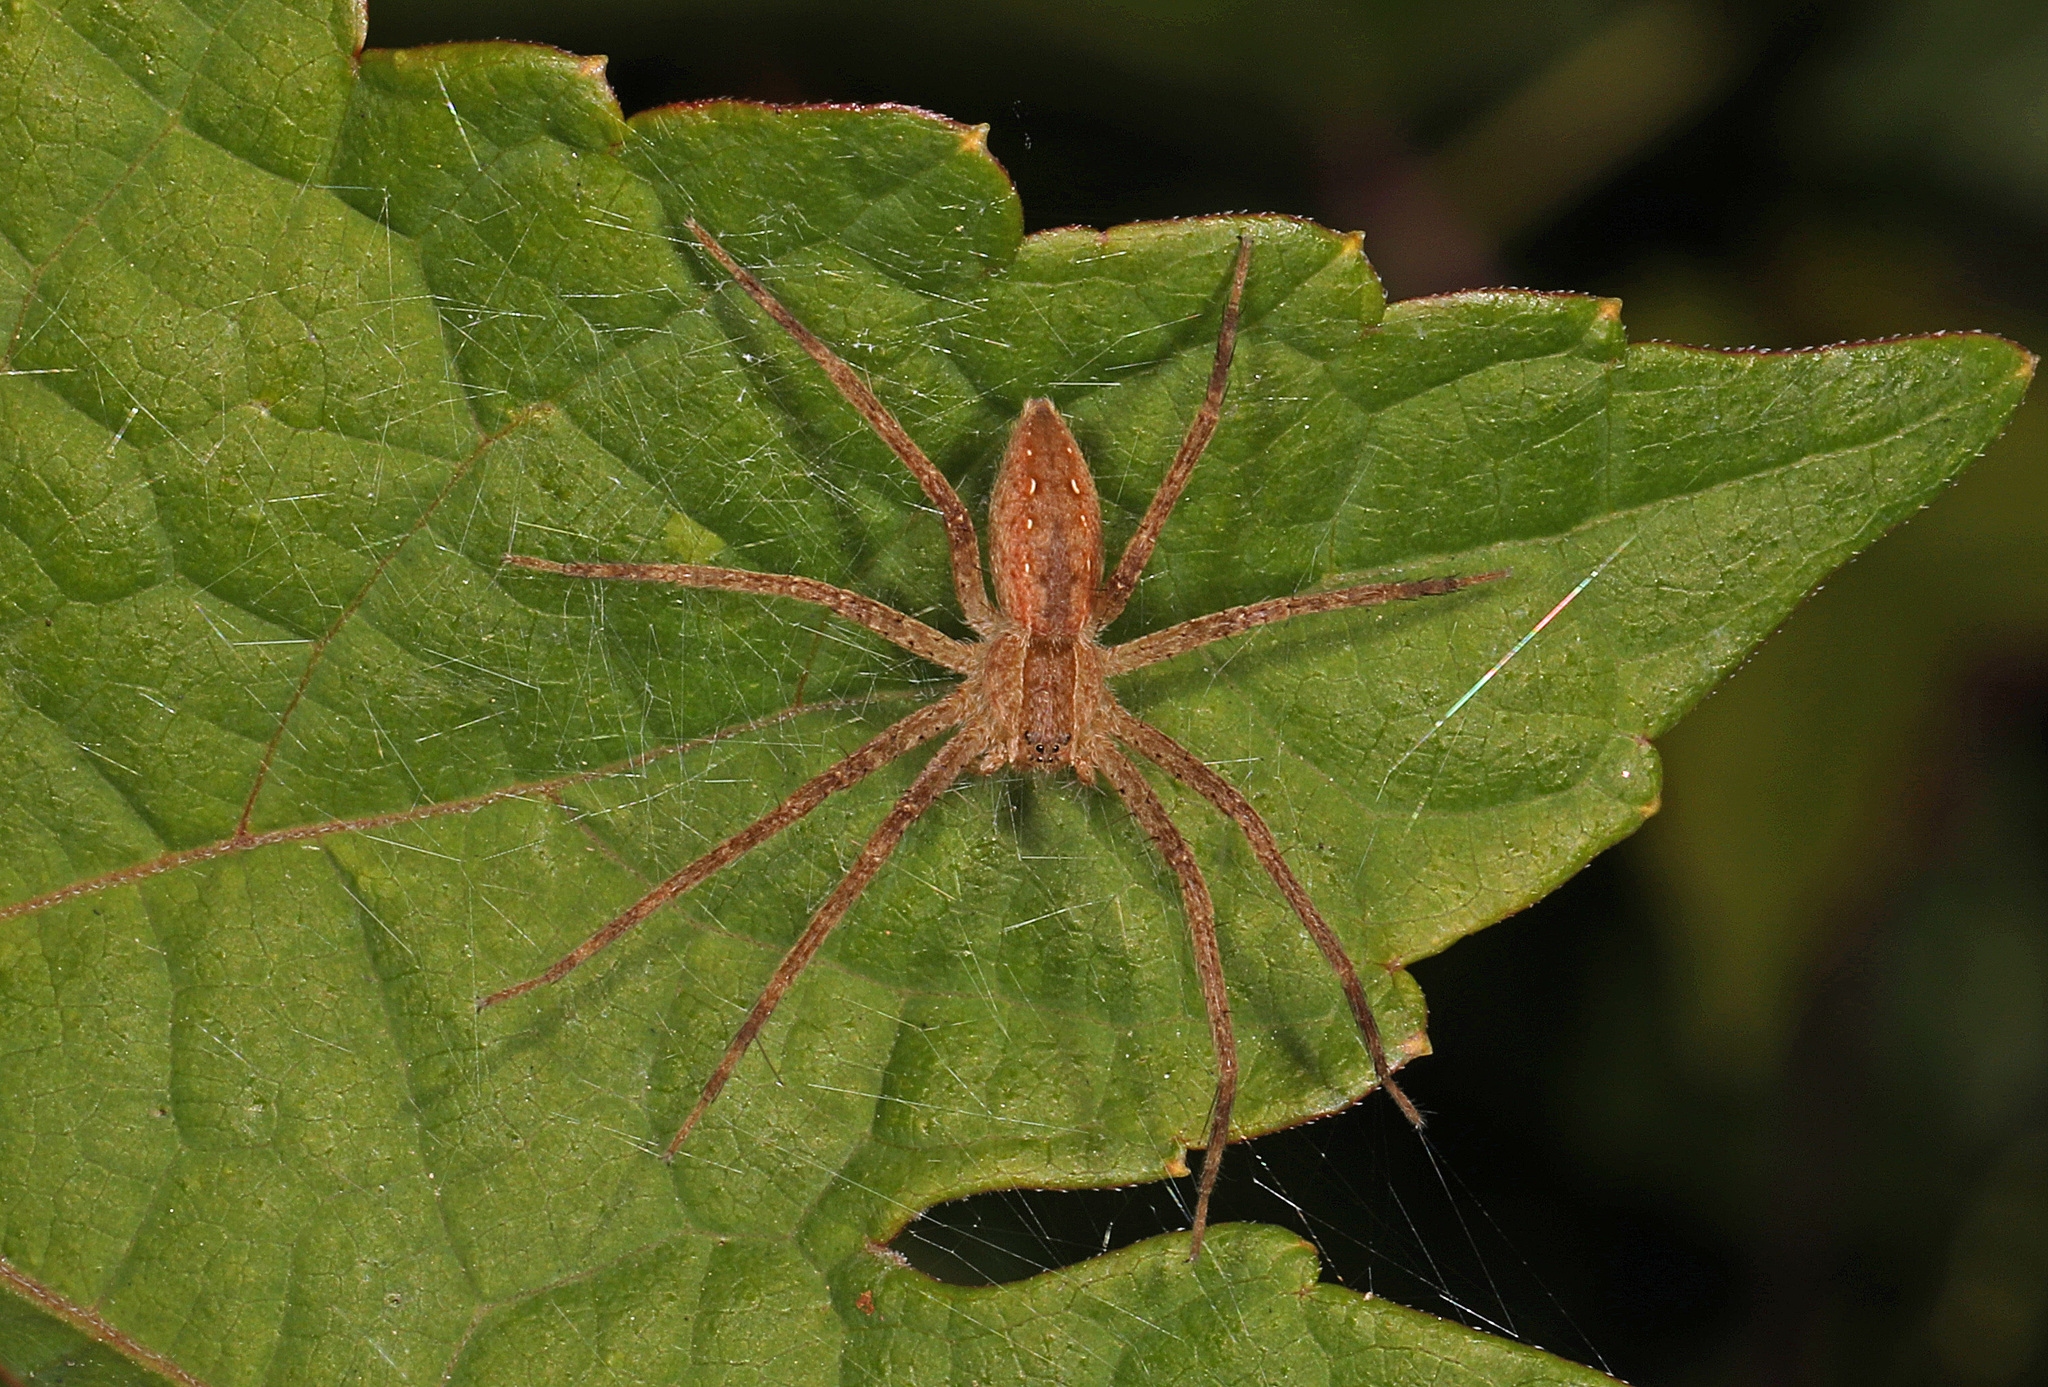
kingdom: Animalia
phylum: Arthropoda
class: Arachnida
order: Araneae
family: Pisauridae
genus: Pisaurina
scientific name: Pisaurina mira
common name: American nursery web spider
